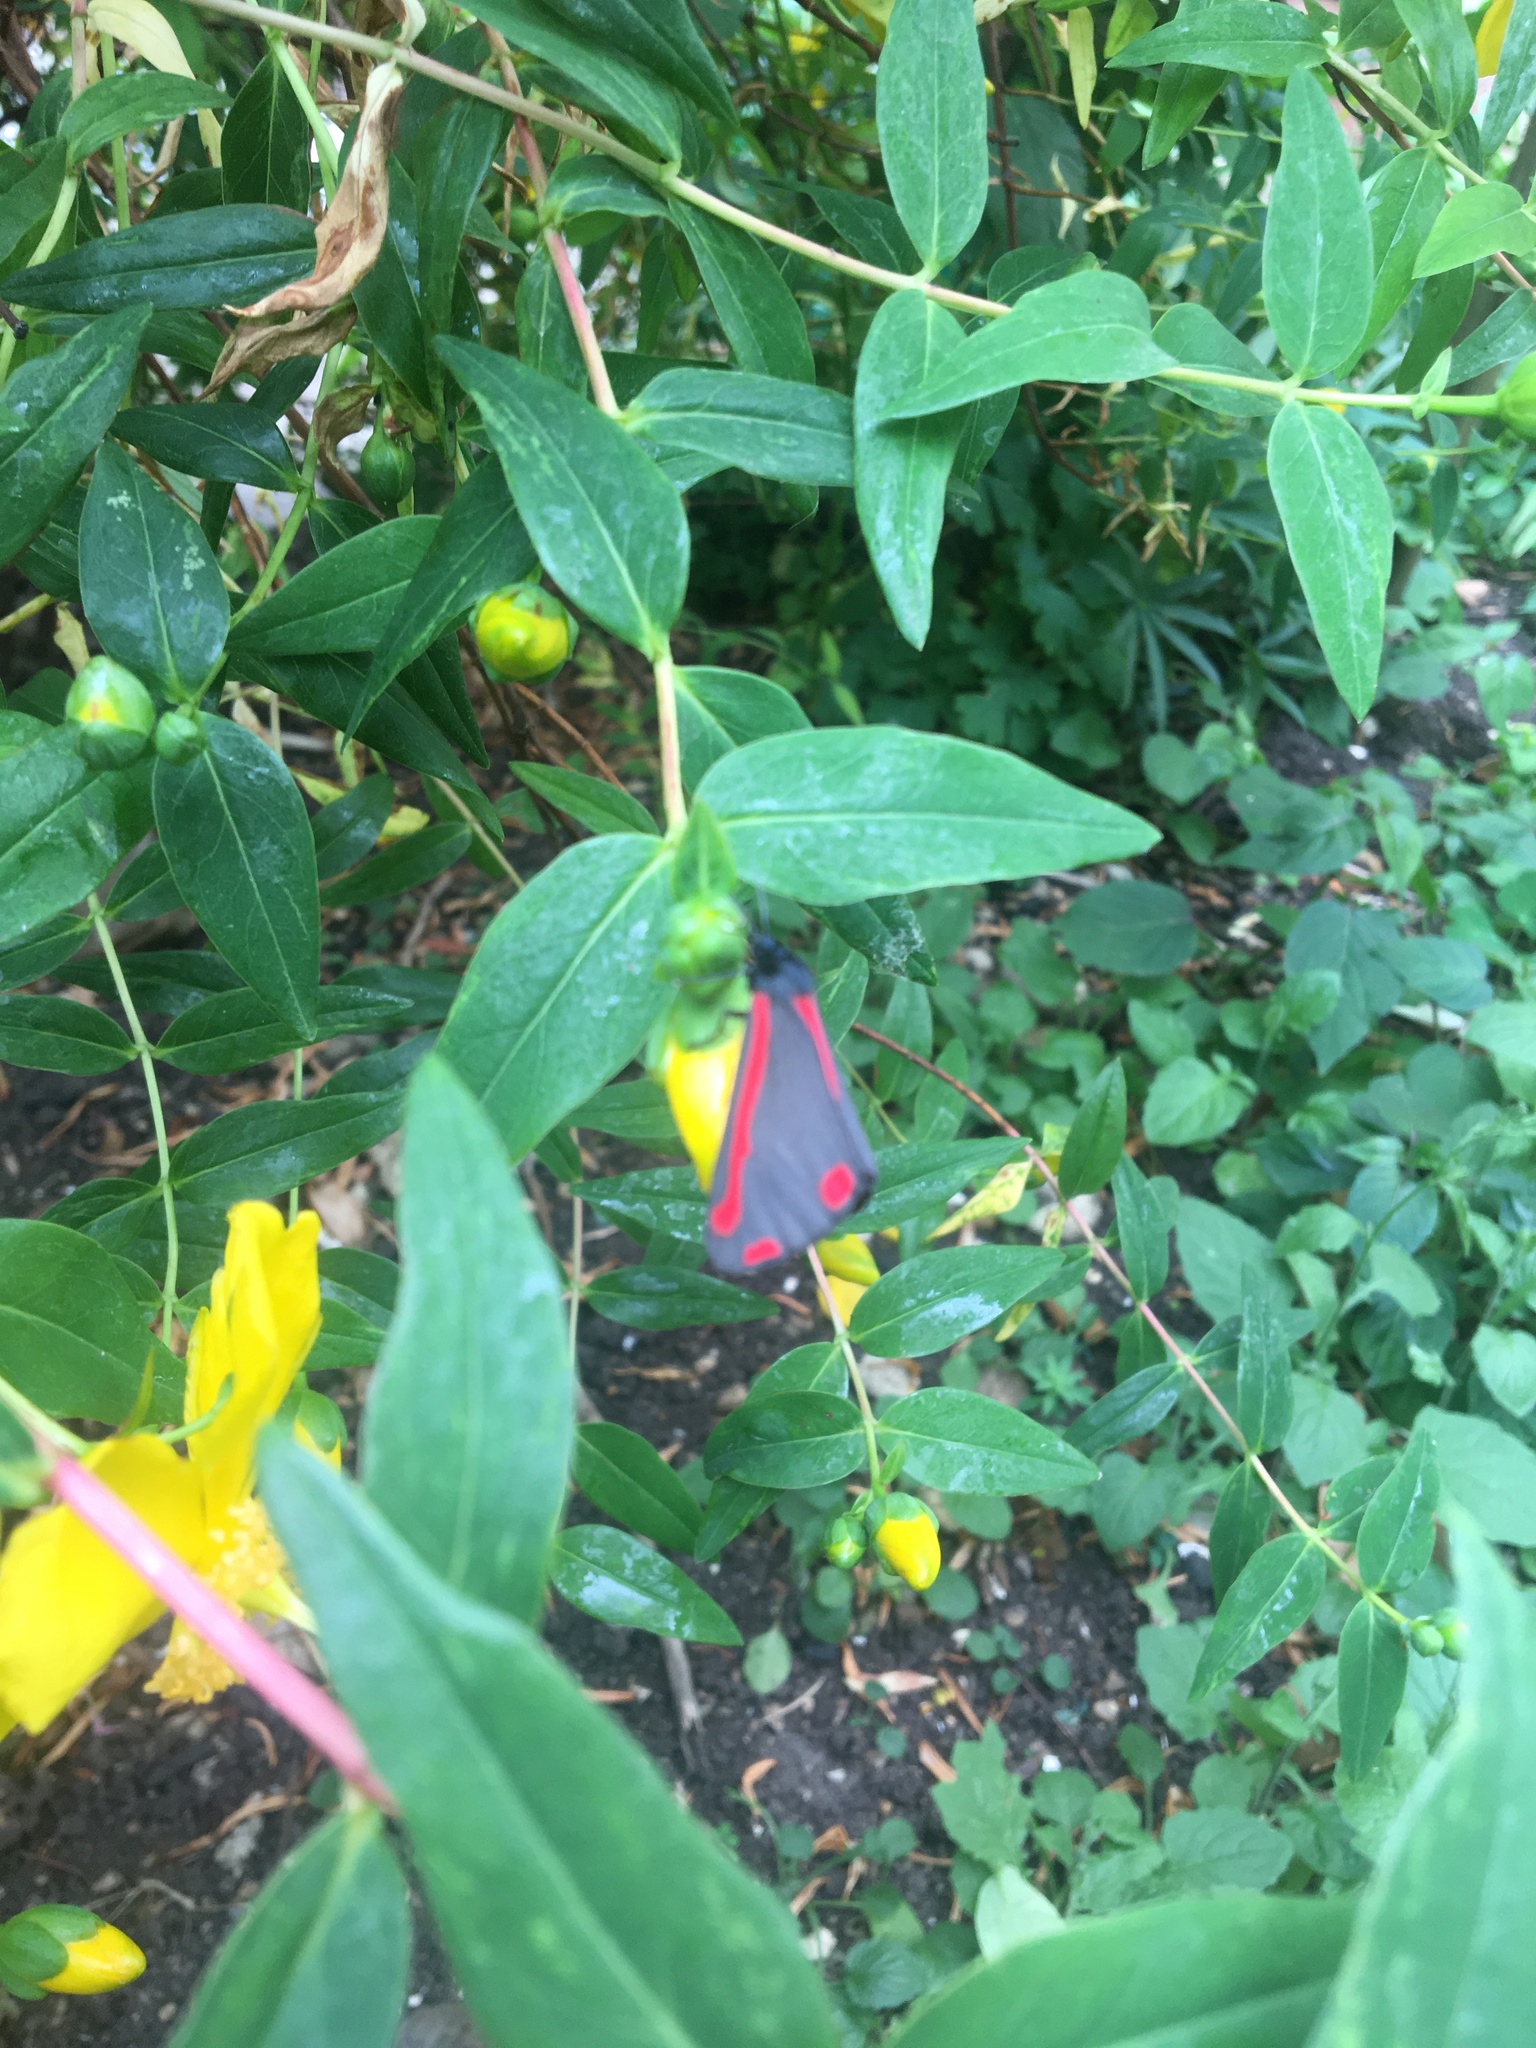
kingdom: Animalia
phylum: Arthropoda
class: Insecta
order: Lepidoptera
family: Erebidae
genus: Tyria
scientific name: Tyria jacobaeae
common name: Cinnabar
